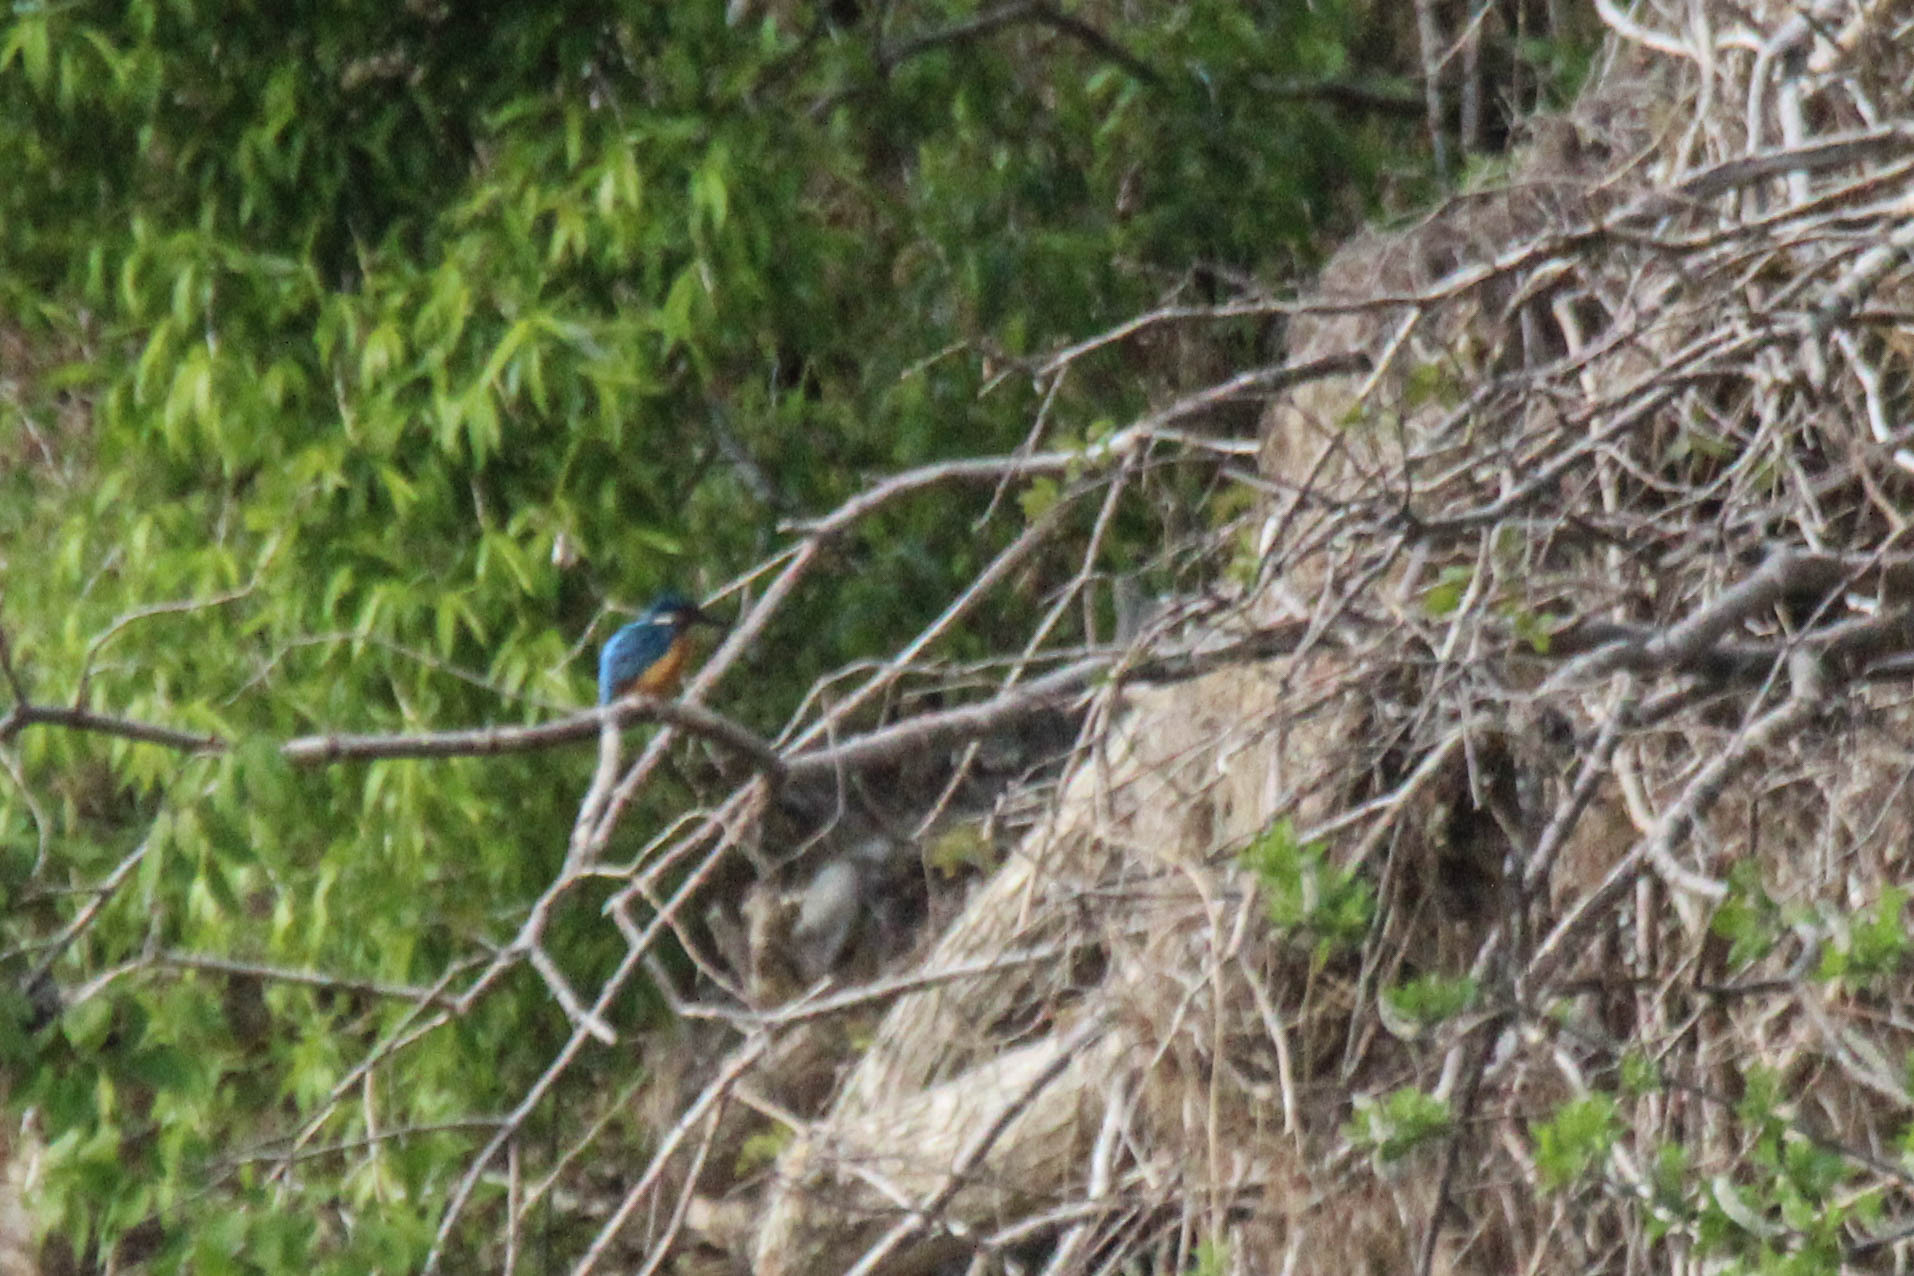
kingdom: Animalia
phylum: Chordata
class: Aves
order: Coraciiformes
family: Alcedinidae
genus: Alcedo
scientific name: Alcedo atthis
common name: Common kingfisher
